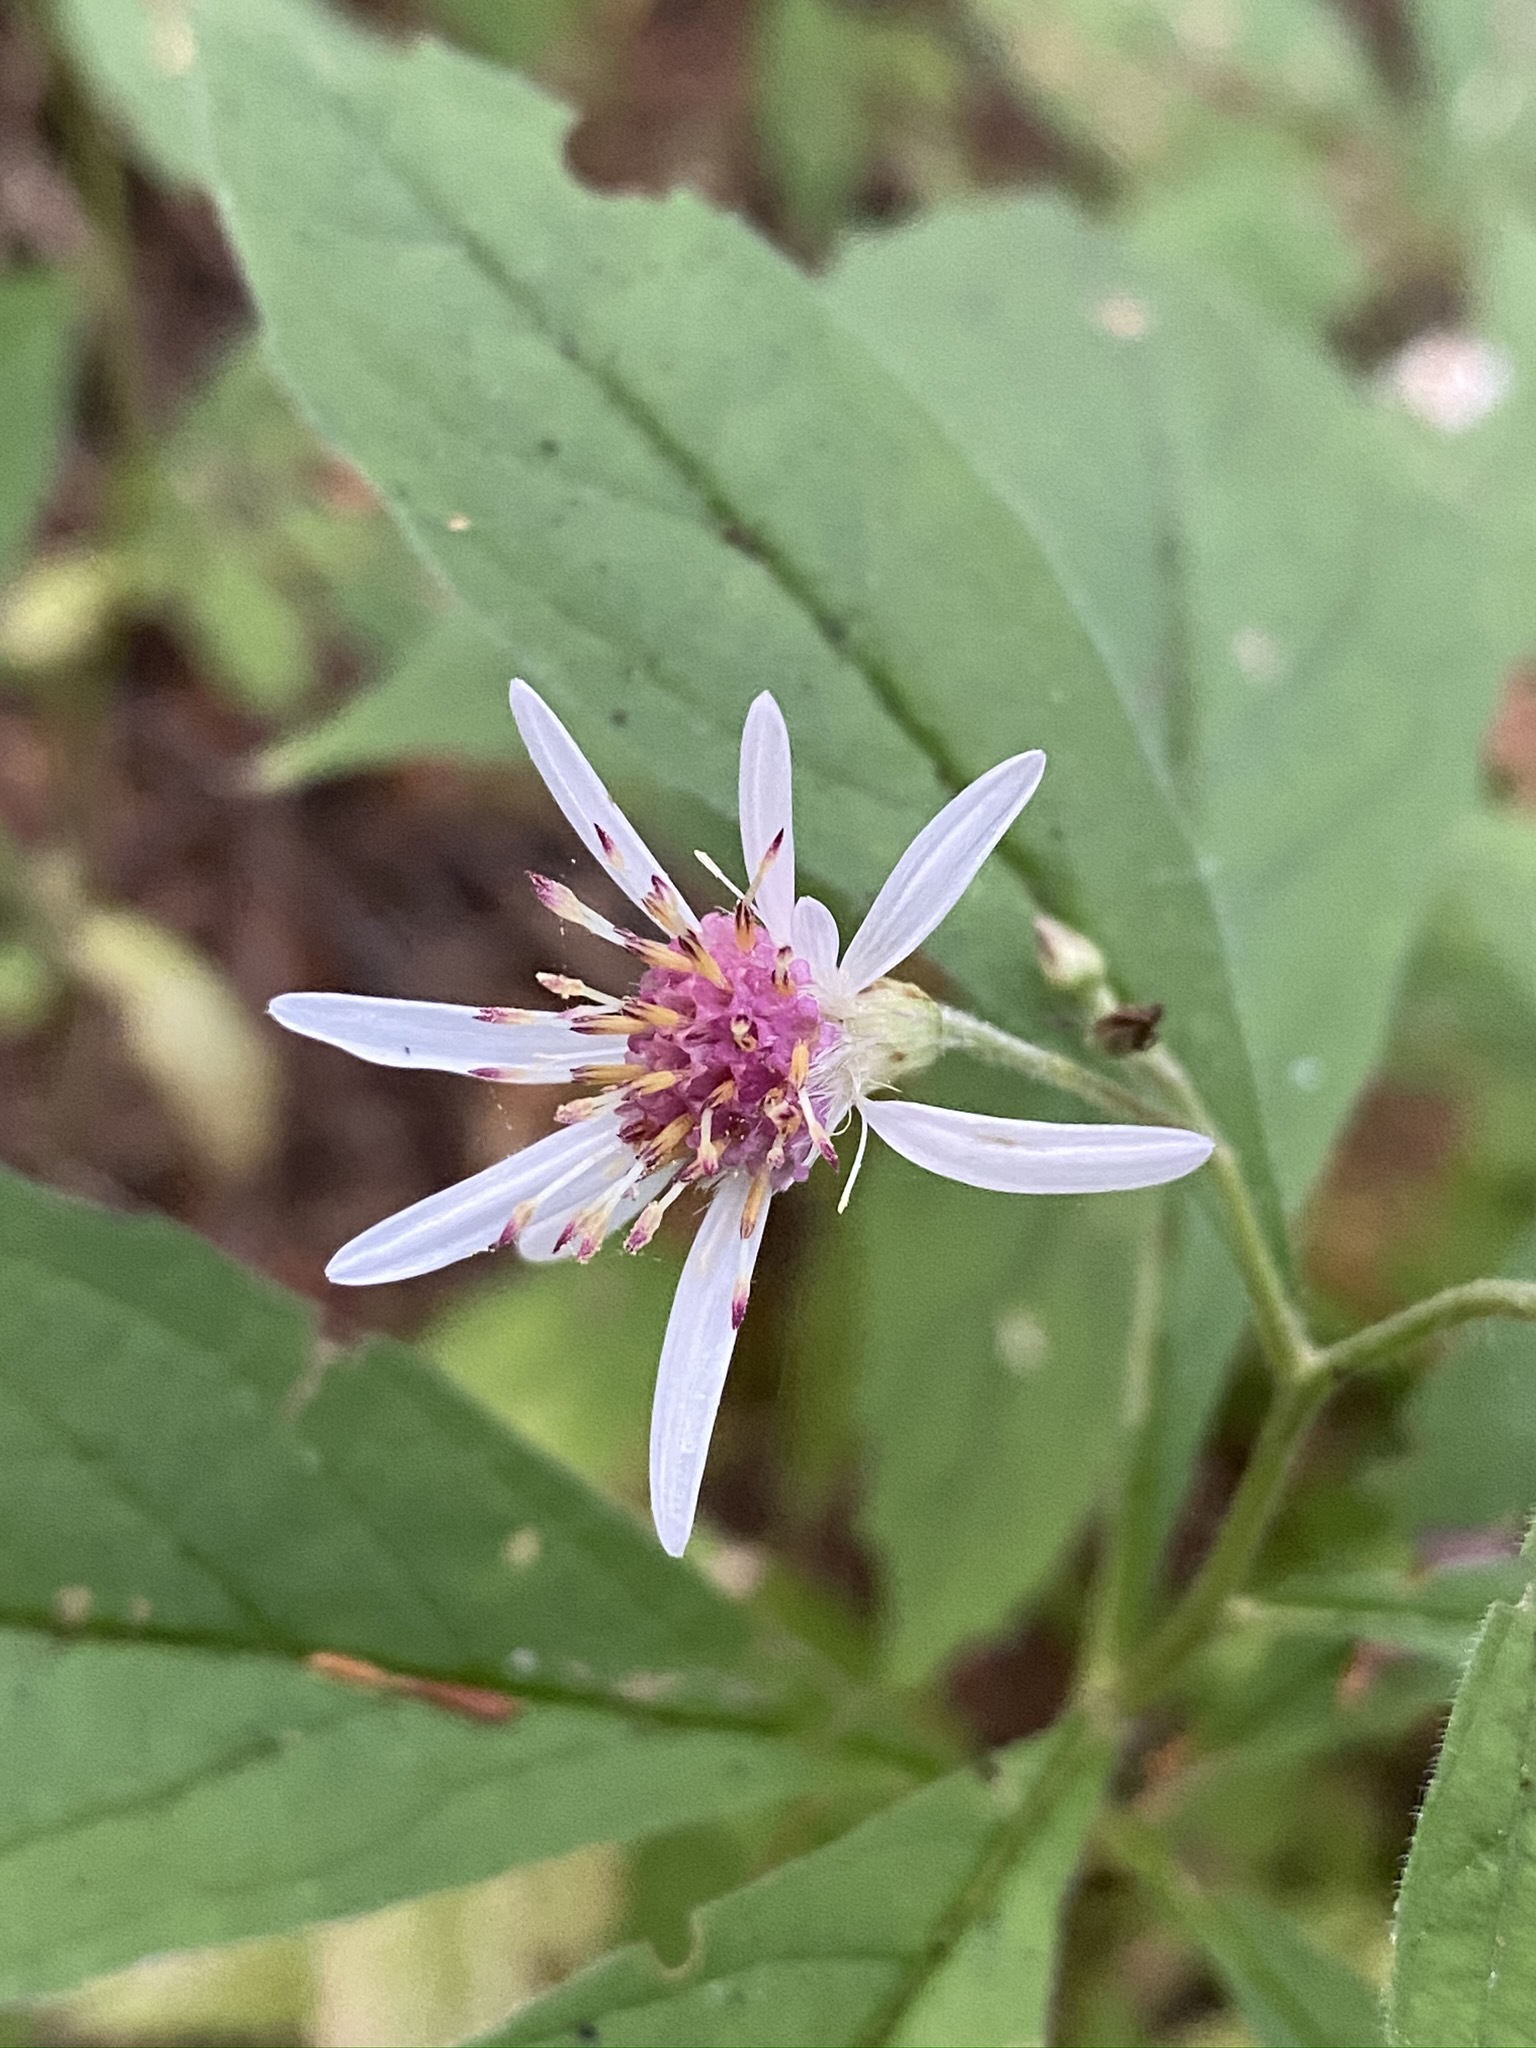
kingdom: Plantae
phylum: Tracheophyta
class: Magnoliopsida
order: Asterales
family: Asteraceae
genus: Oclemena
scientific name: Oclemena acuminata
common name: Mountain aster
